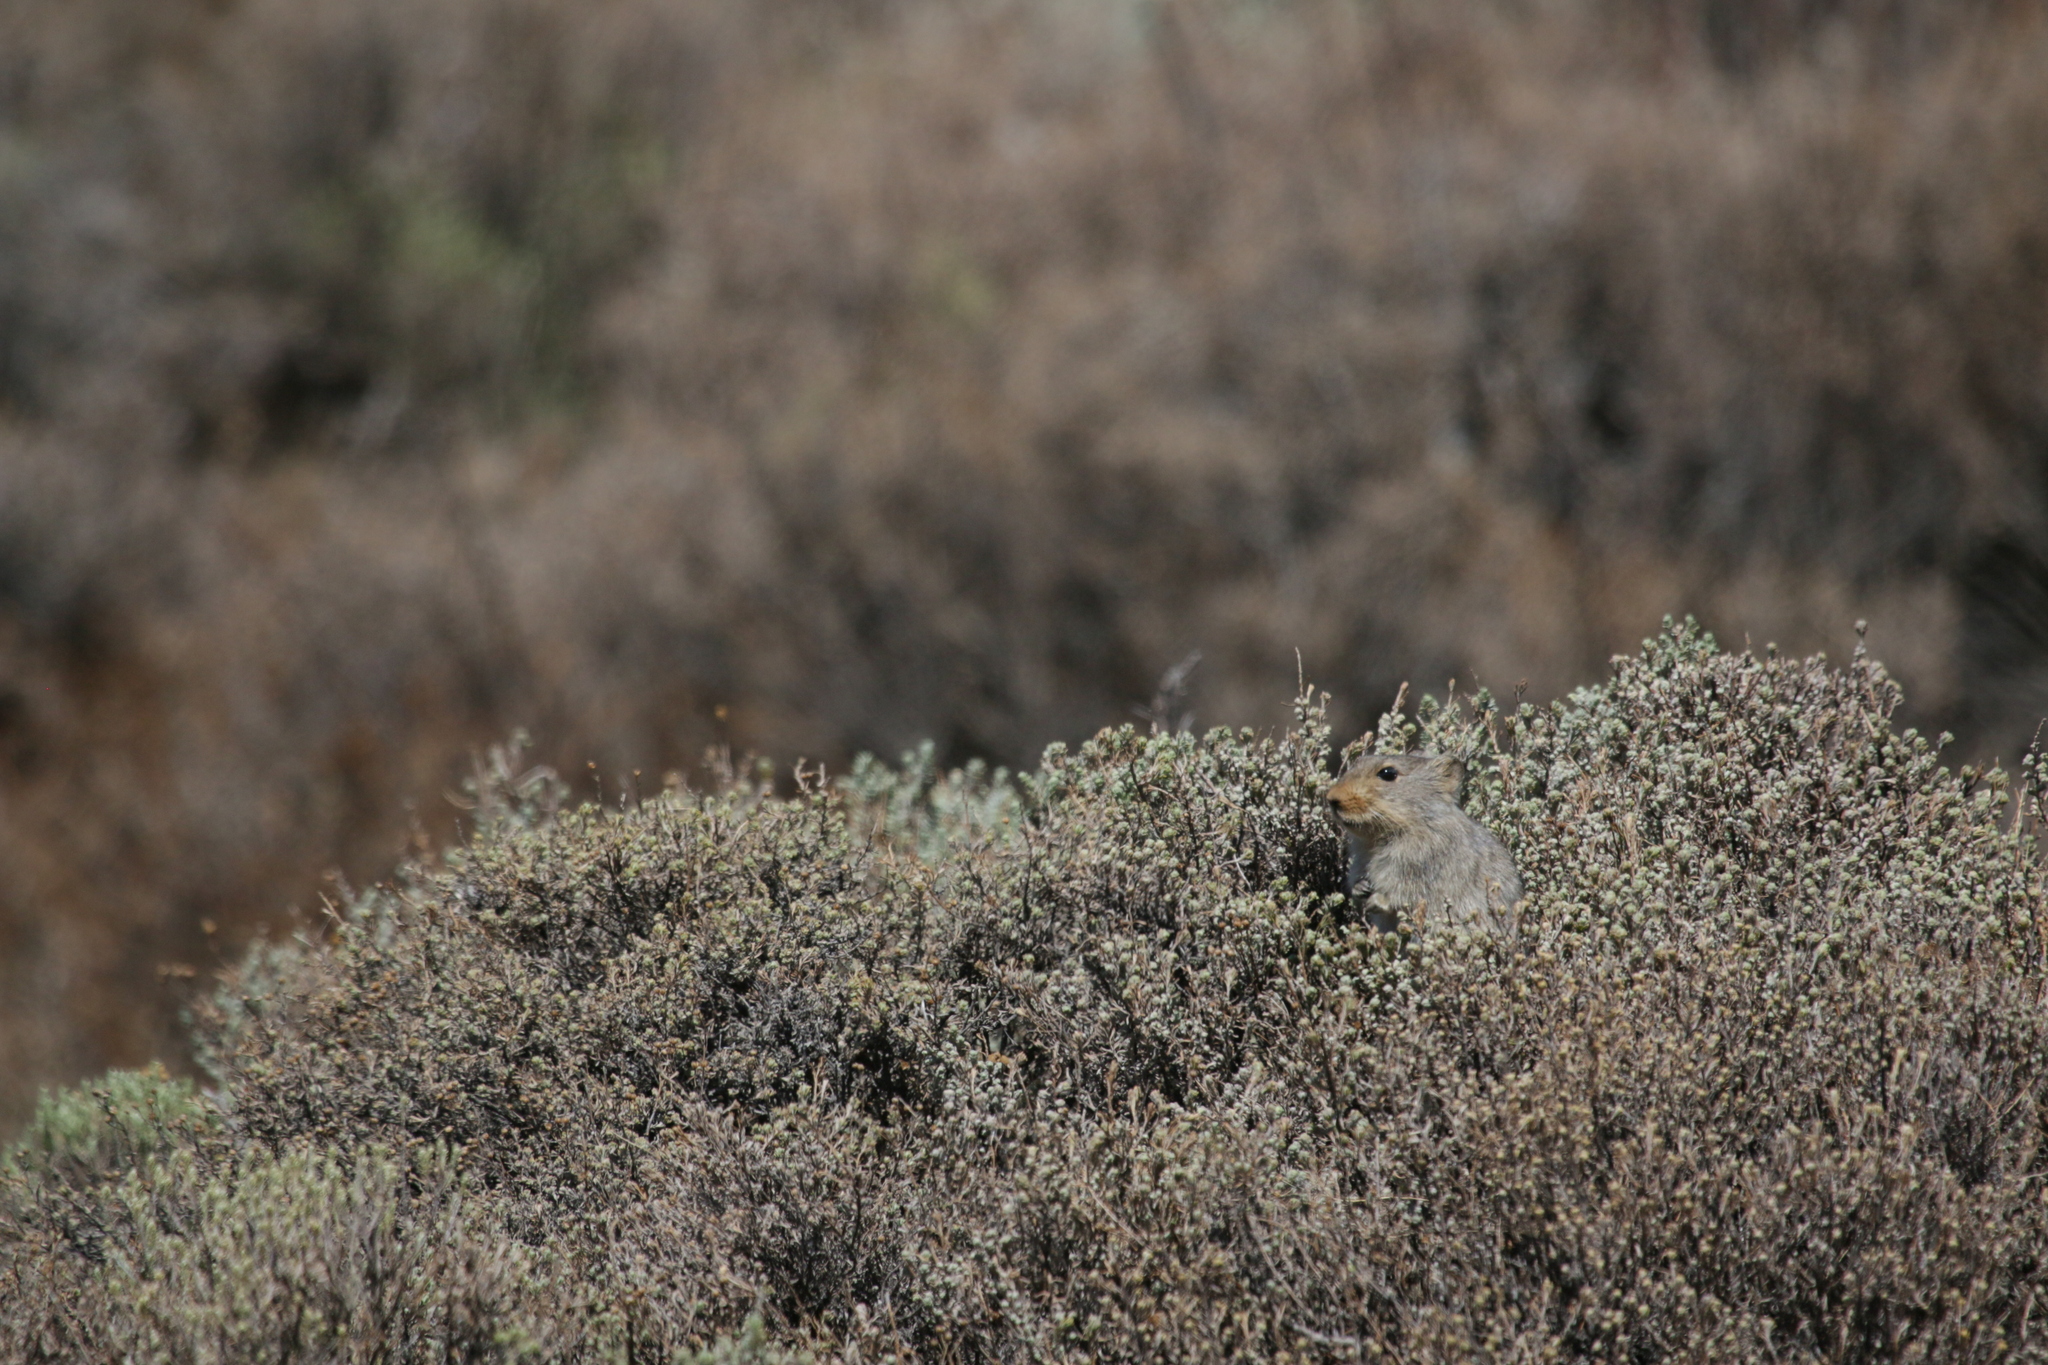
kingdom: Animalia
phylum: Chordata
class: Mammalia
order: Rodentia
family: Muridae
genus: Myotomys
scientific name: Myotomys sloggetti
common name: Rock karroo rat
